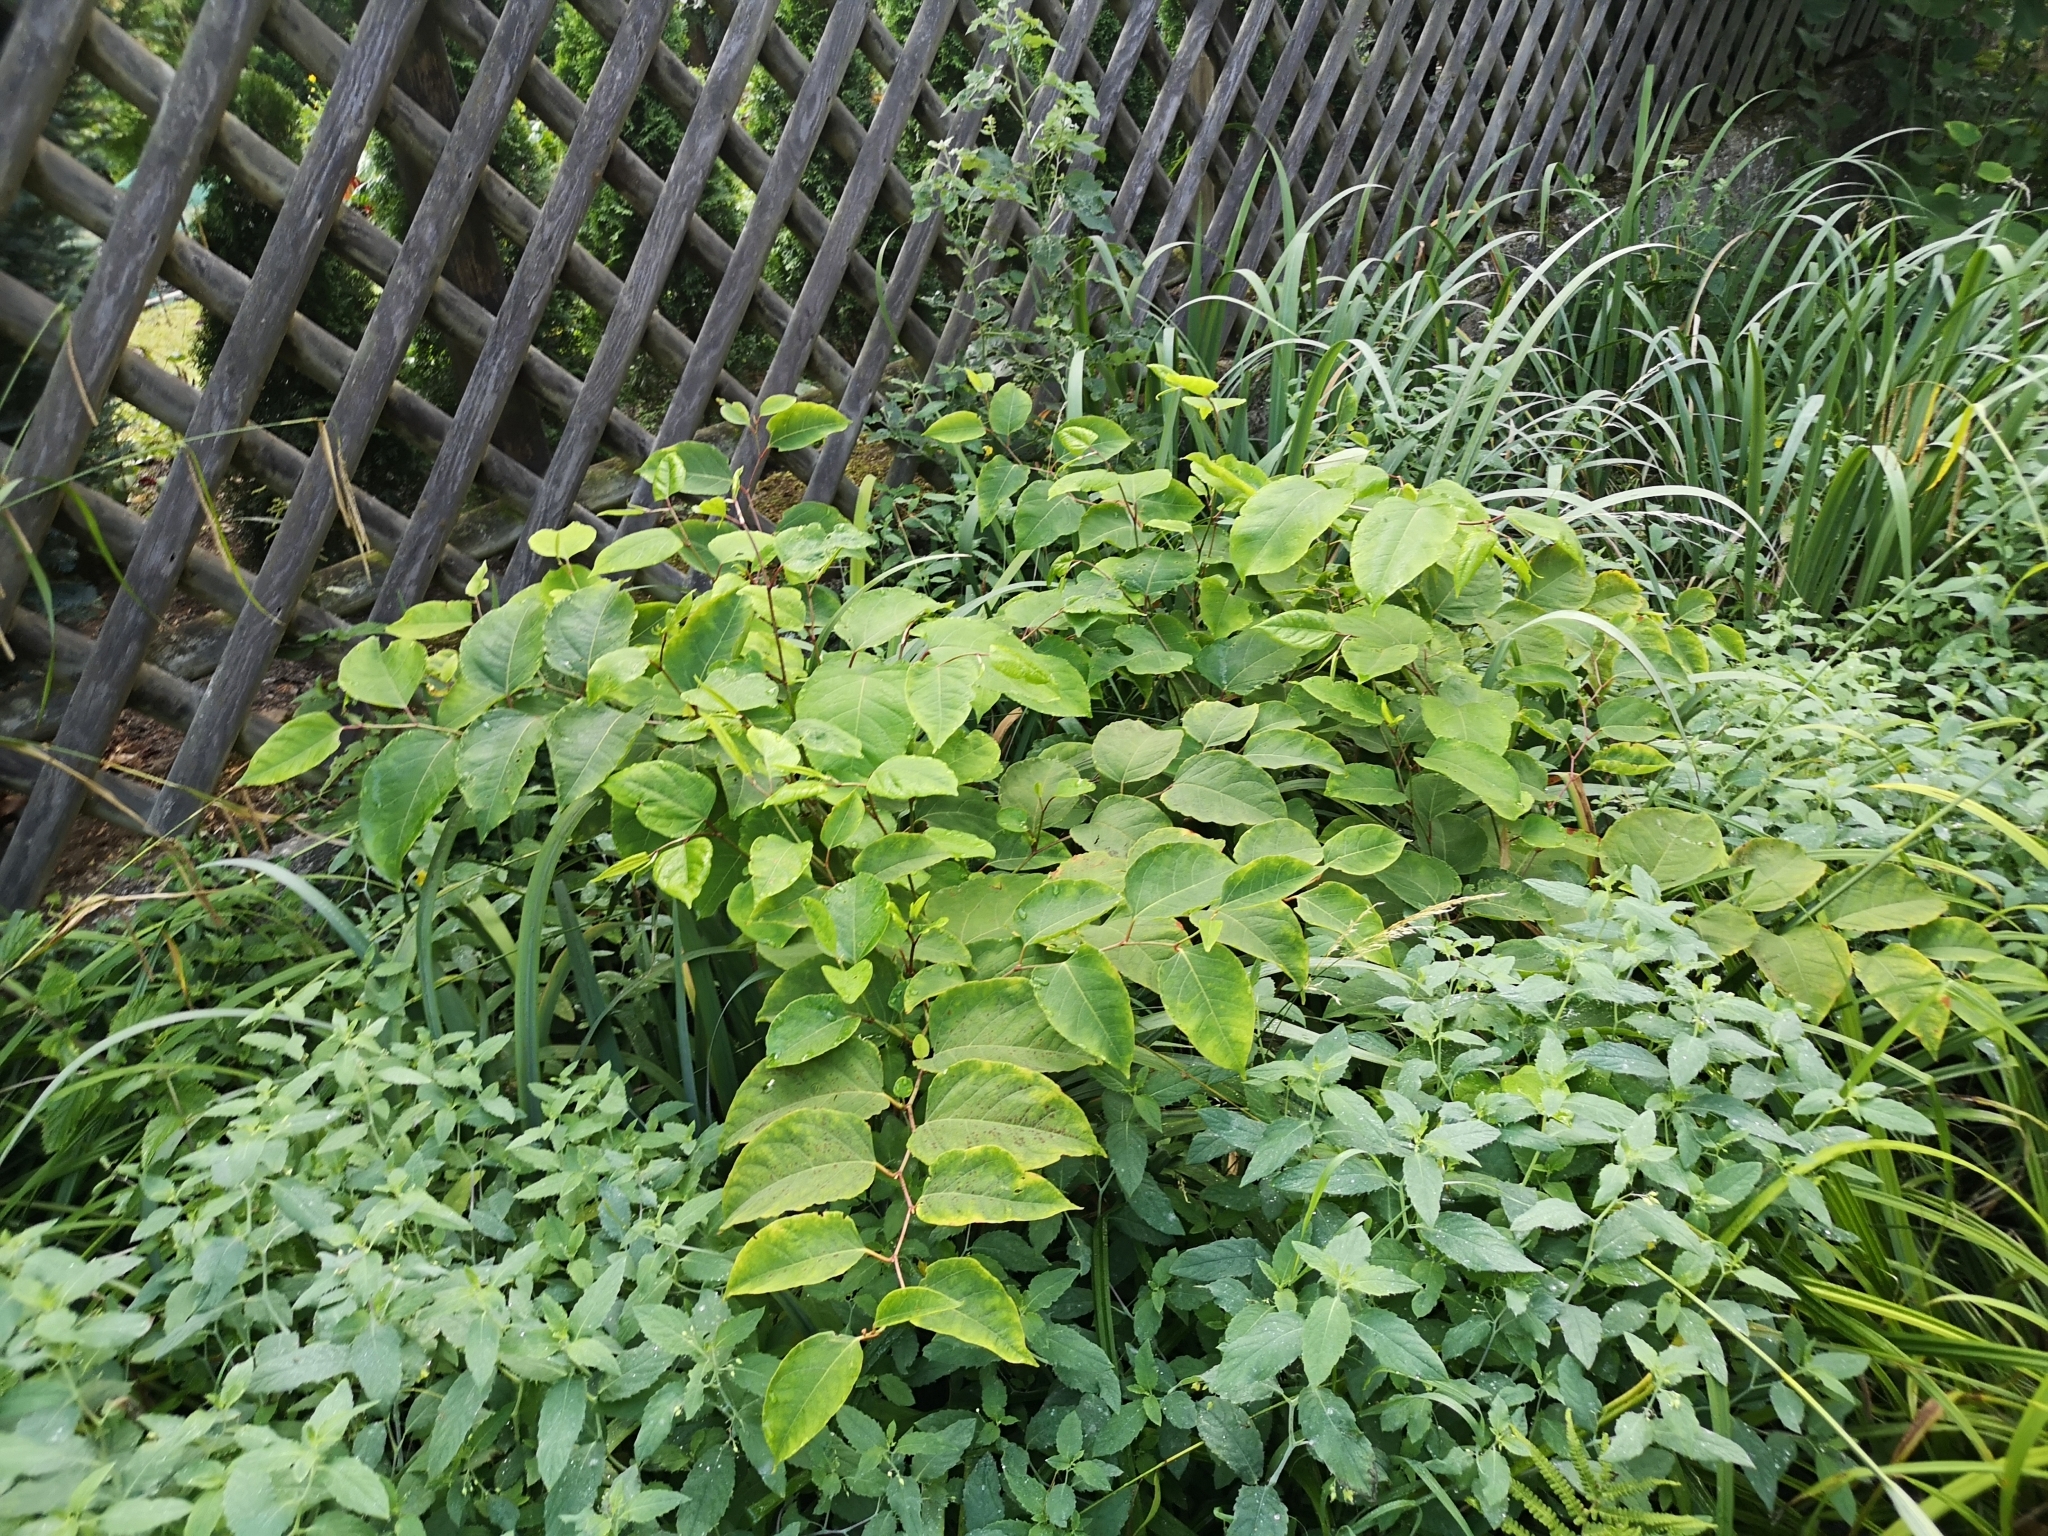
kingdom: Plantae
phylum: Tracheophyta
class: Magnoliopsida
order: Caryophyllales
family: Polygonaceae
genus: Reynoutria
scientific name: Reynoutria japonica
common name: Japanese knotweed
